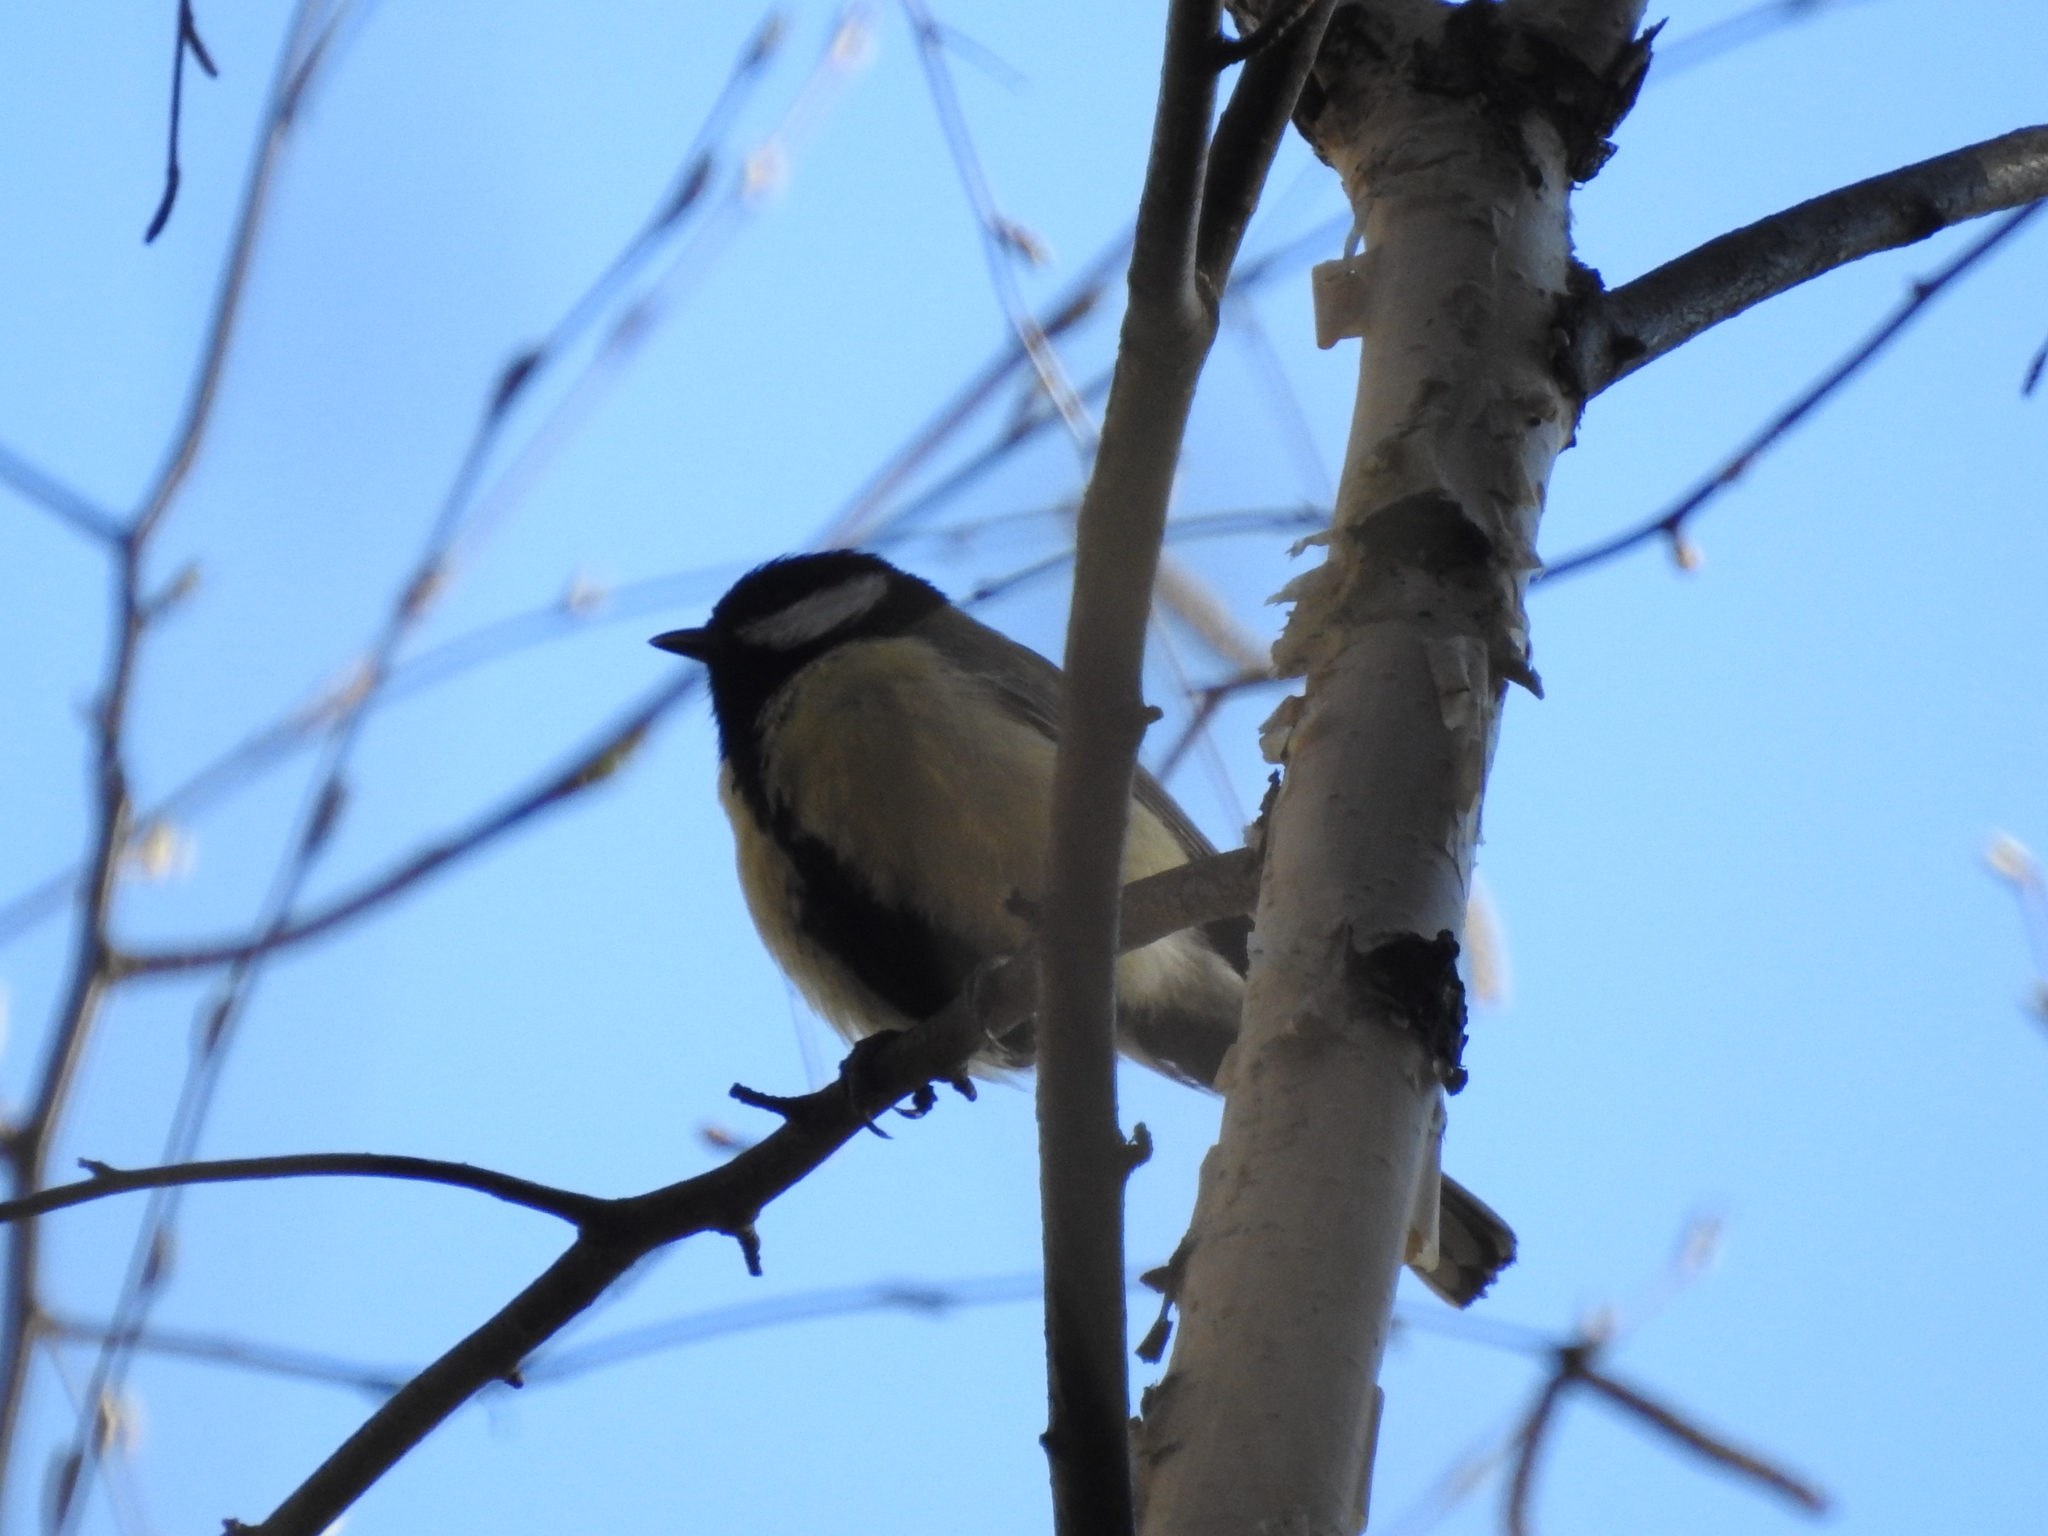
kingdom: Animalia
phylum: Chordata
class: Aves
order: Passeriformes
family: Paridae
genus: Parus
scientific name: Parus major
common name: Great tit
